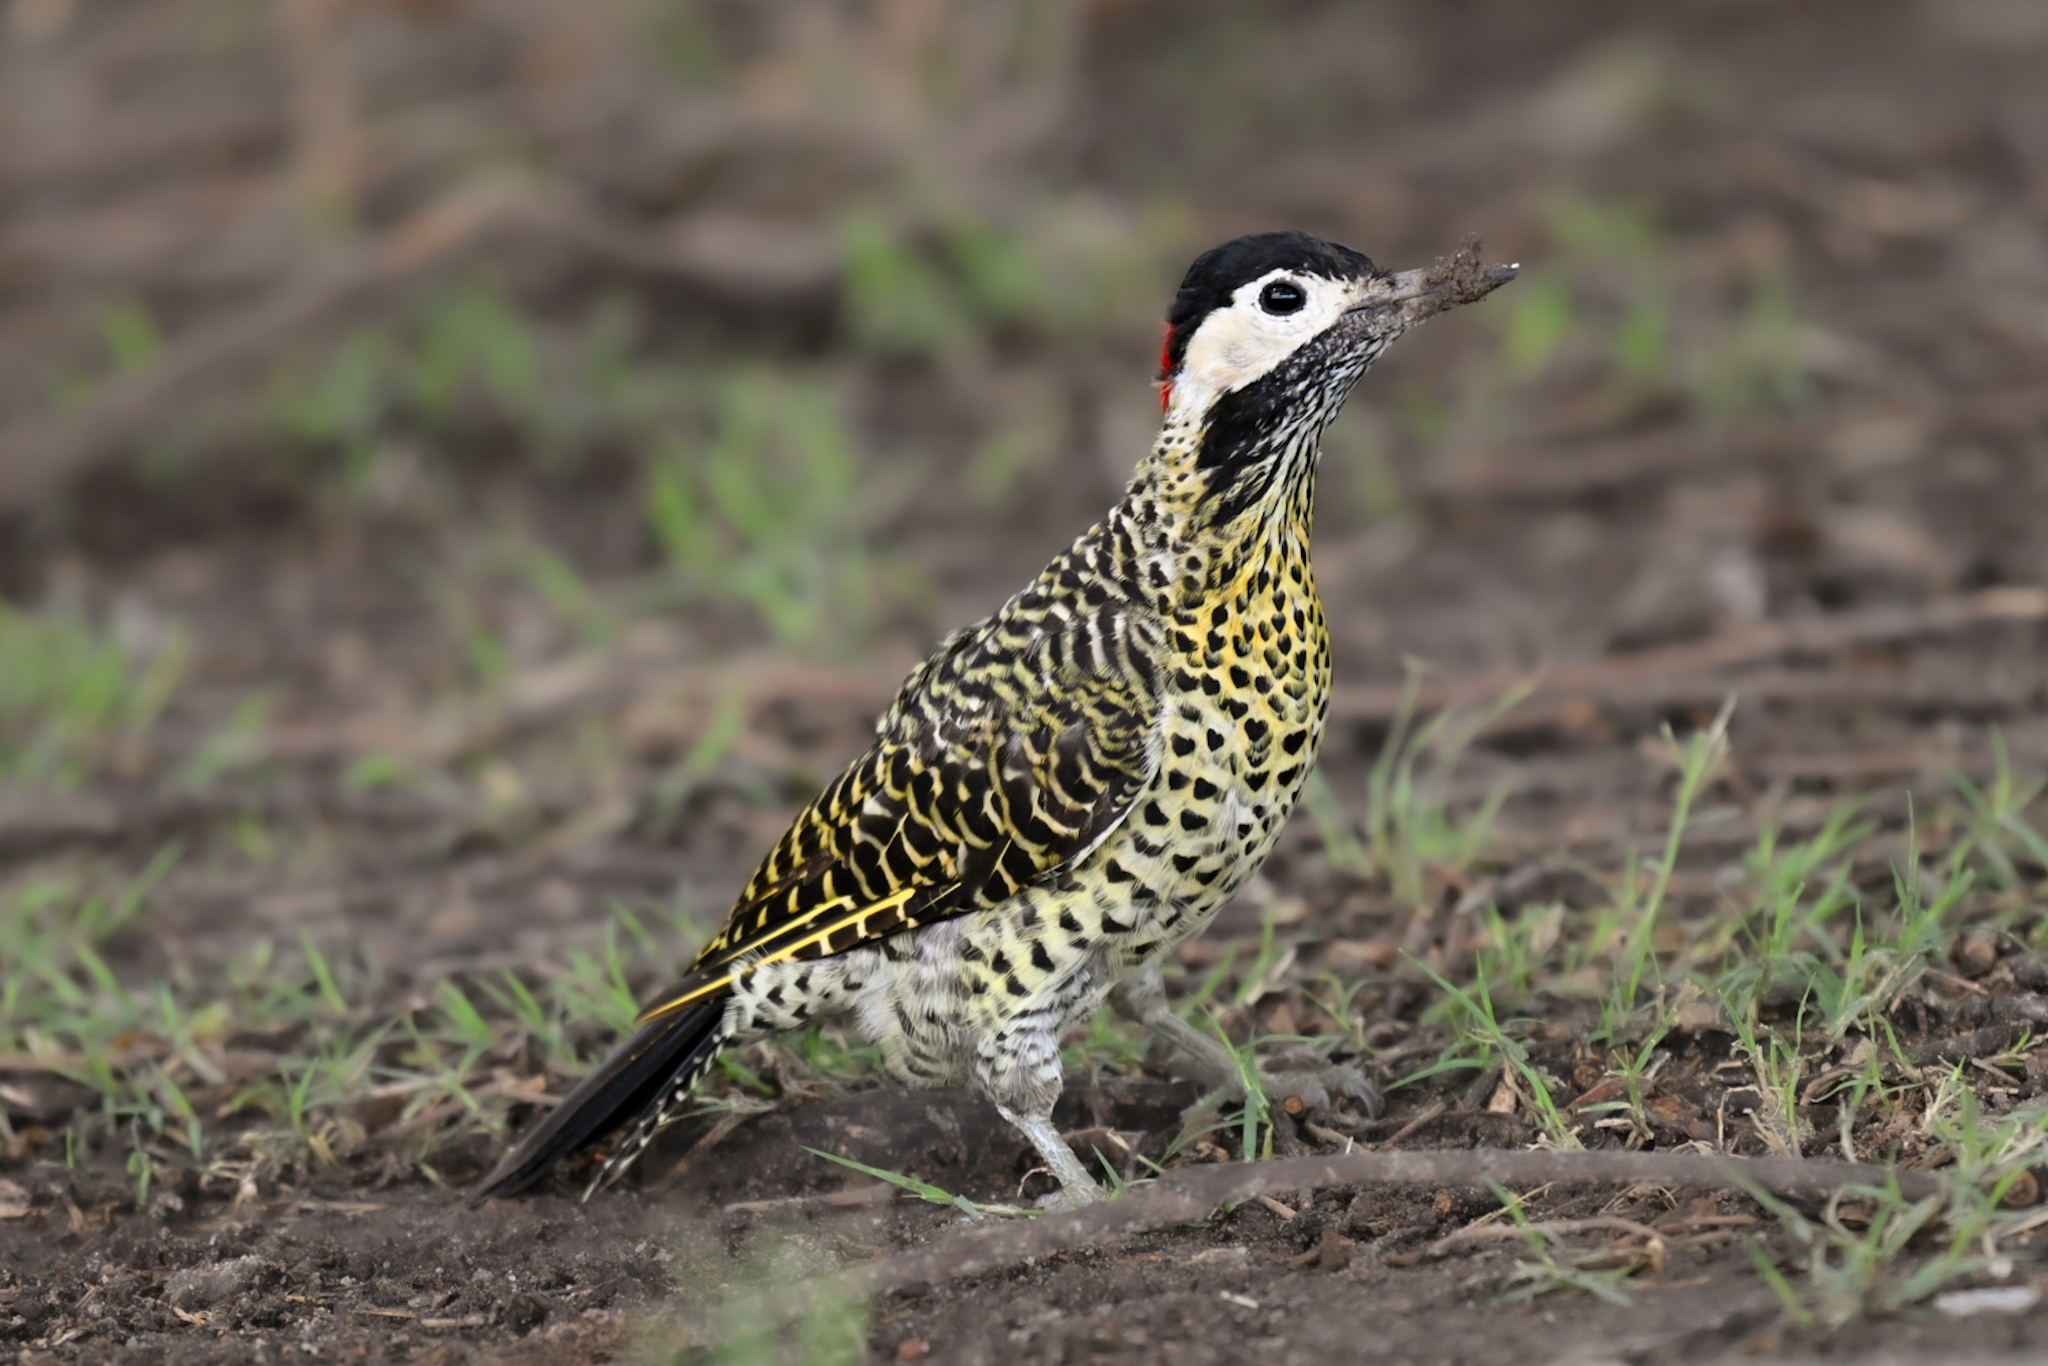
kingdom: Animalia
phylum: Chordata
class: Aves
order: Piciformes
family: Picidae
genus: Colaptes
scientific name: Colaptes melanochloros
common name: Green-barred woodpecker
